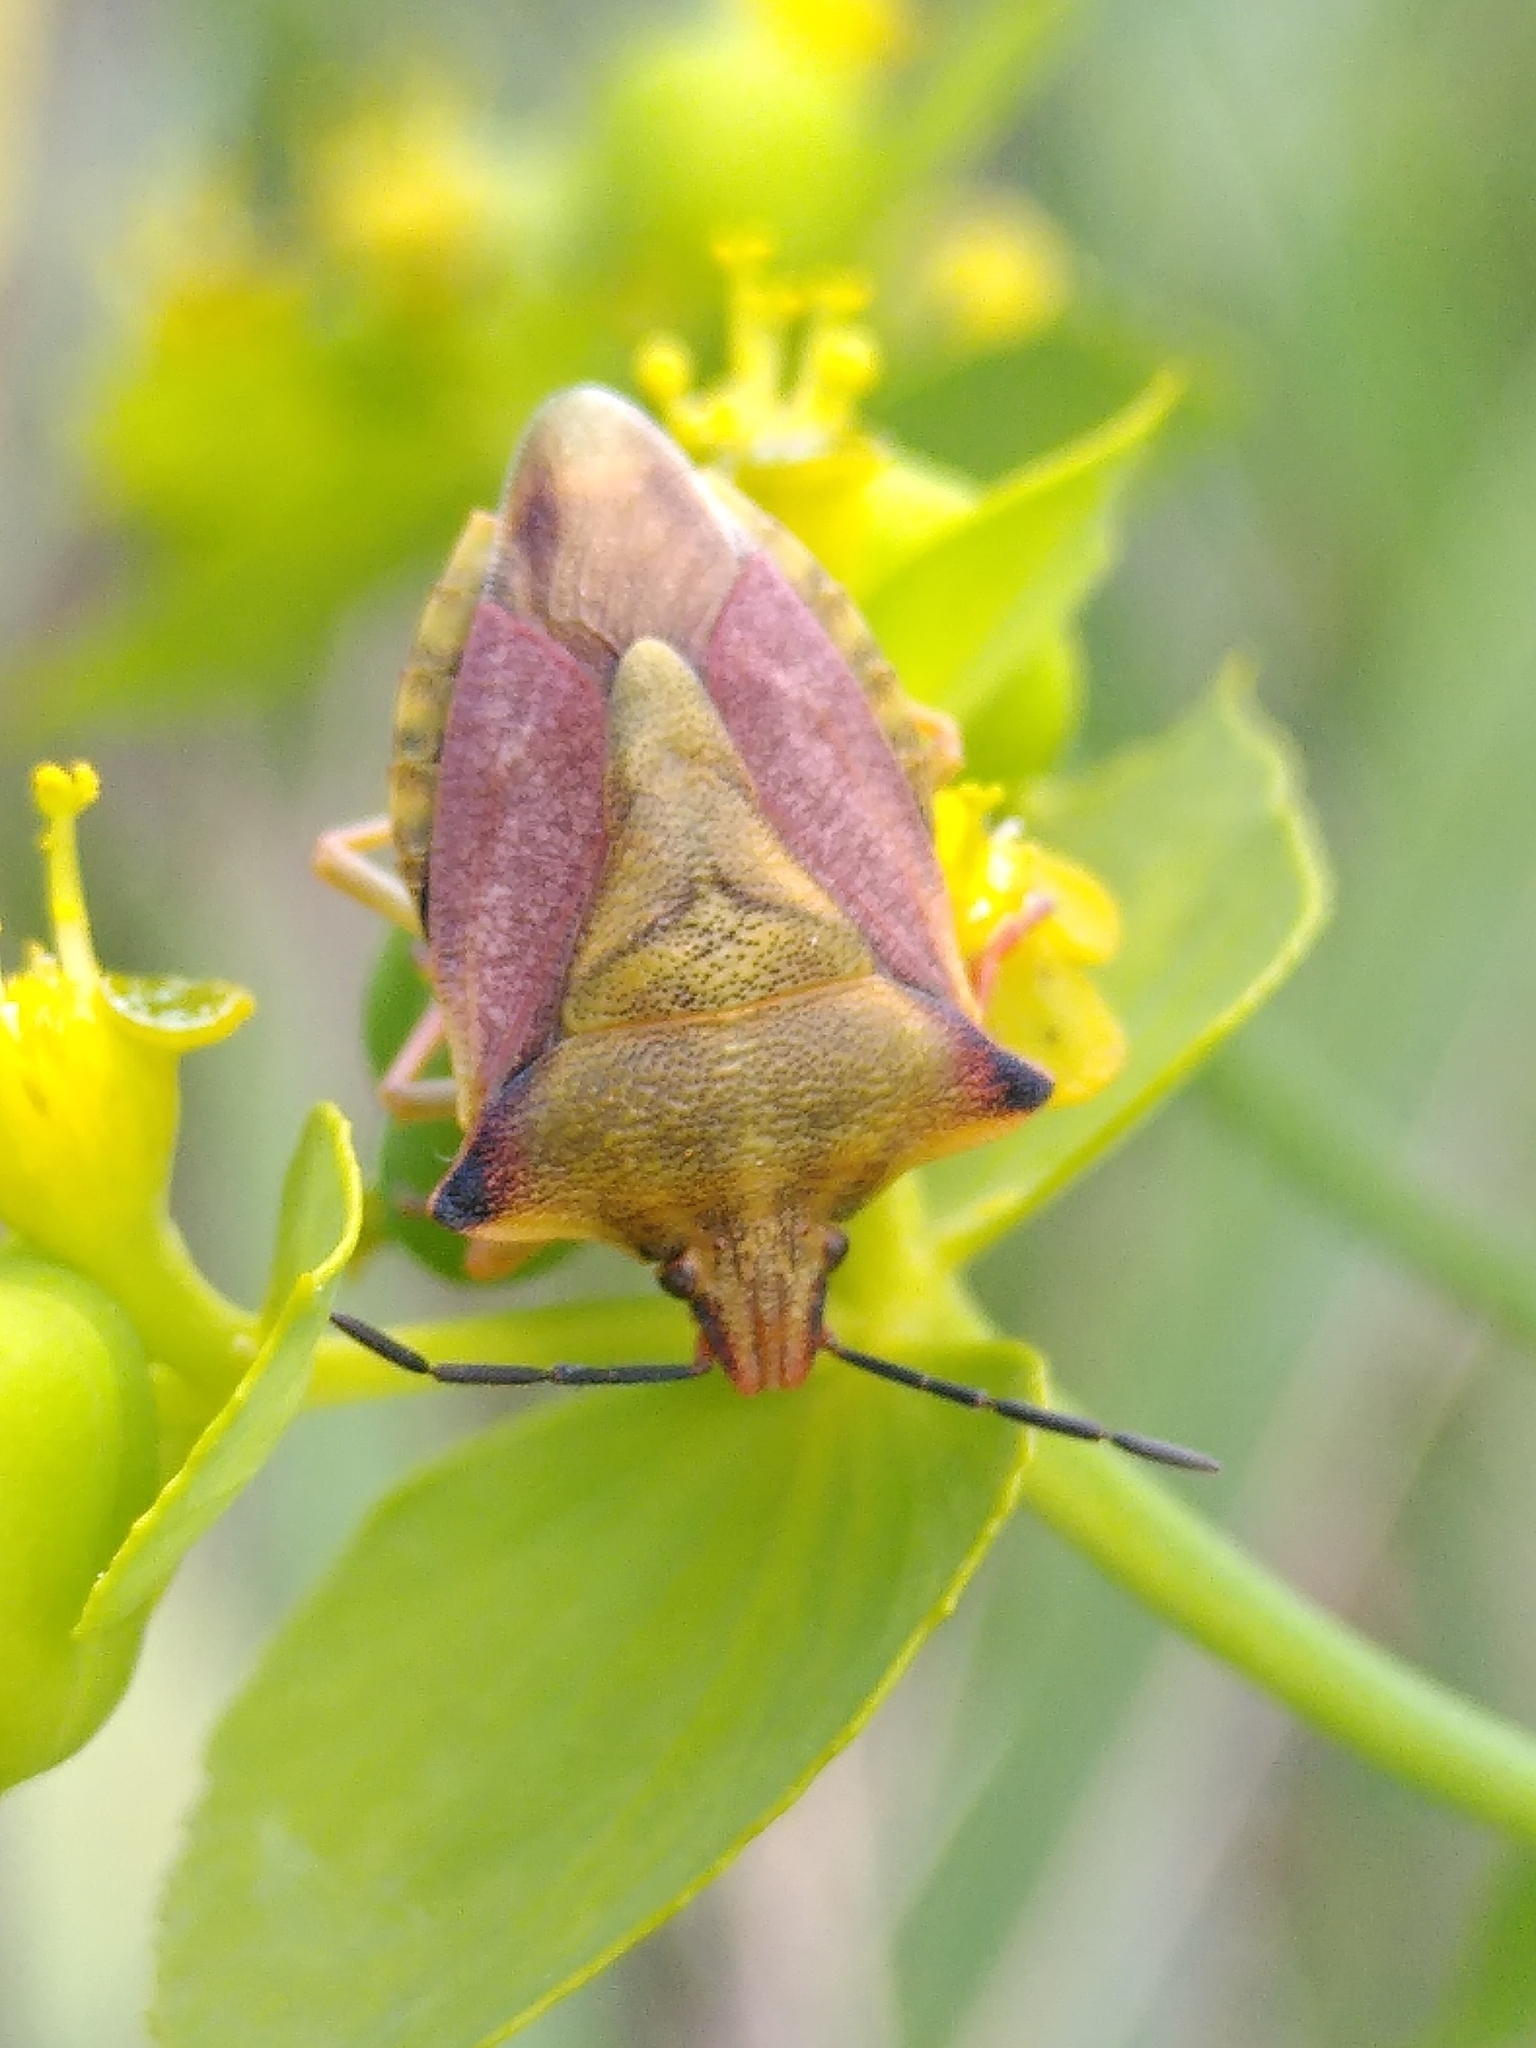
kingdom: Animalia
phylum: Arthropoda
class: Insecta
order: Hemiptera
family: Pentatomidae
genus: Carpocoris
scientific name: Carpocoris mediterraneus
